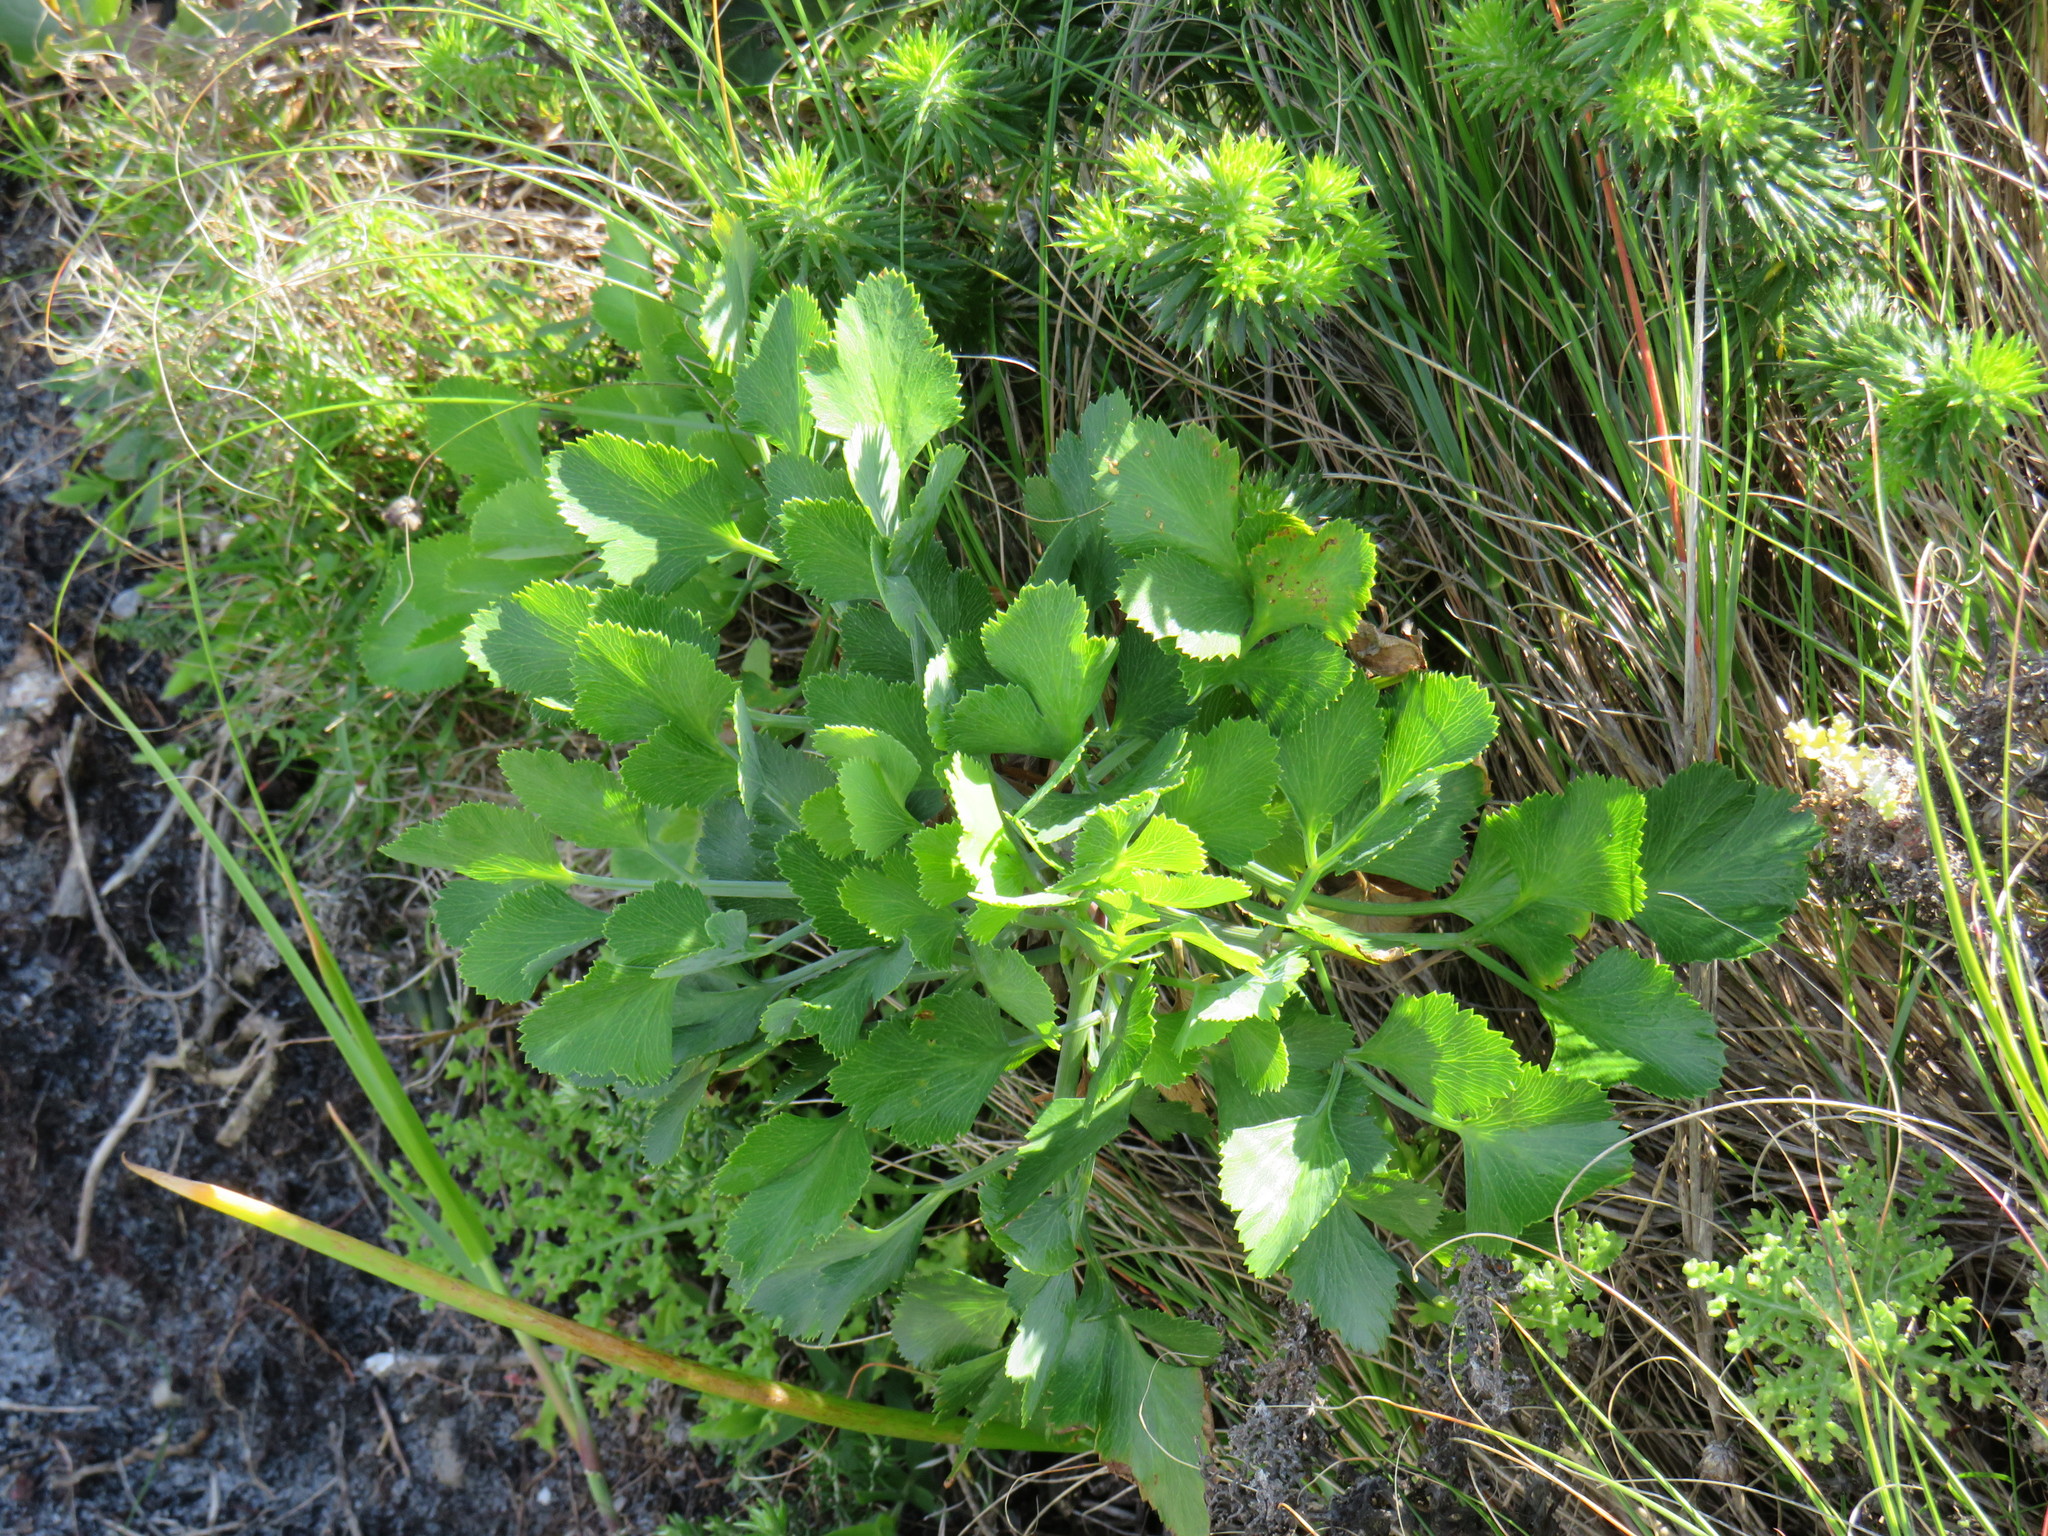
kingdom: Plantae
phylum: Tracheophyta
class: Magnoliopsida
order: Apiales
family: Apiaceae
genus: Notobubon
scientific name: Notobubon galbanum
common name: Blisterbush
